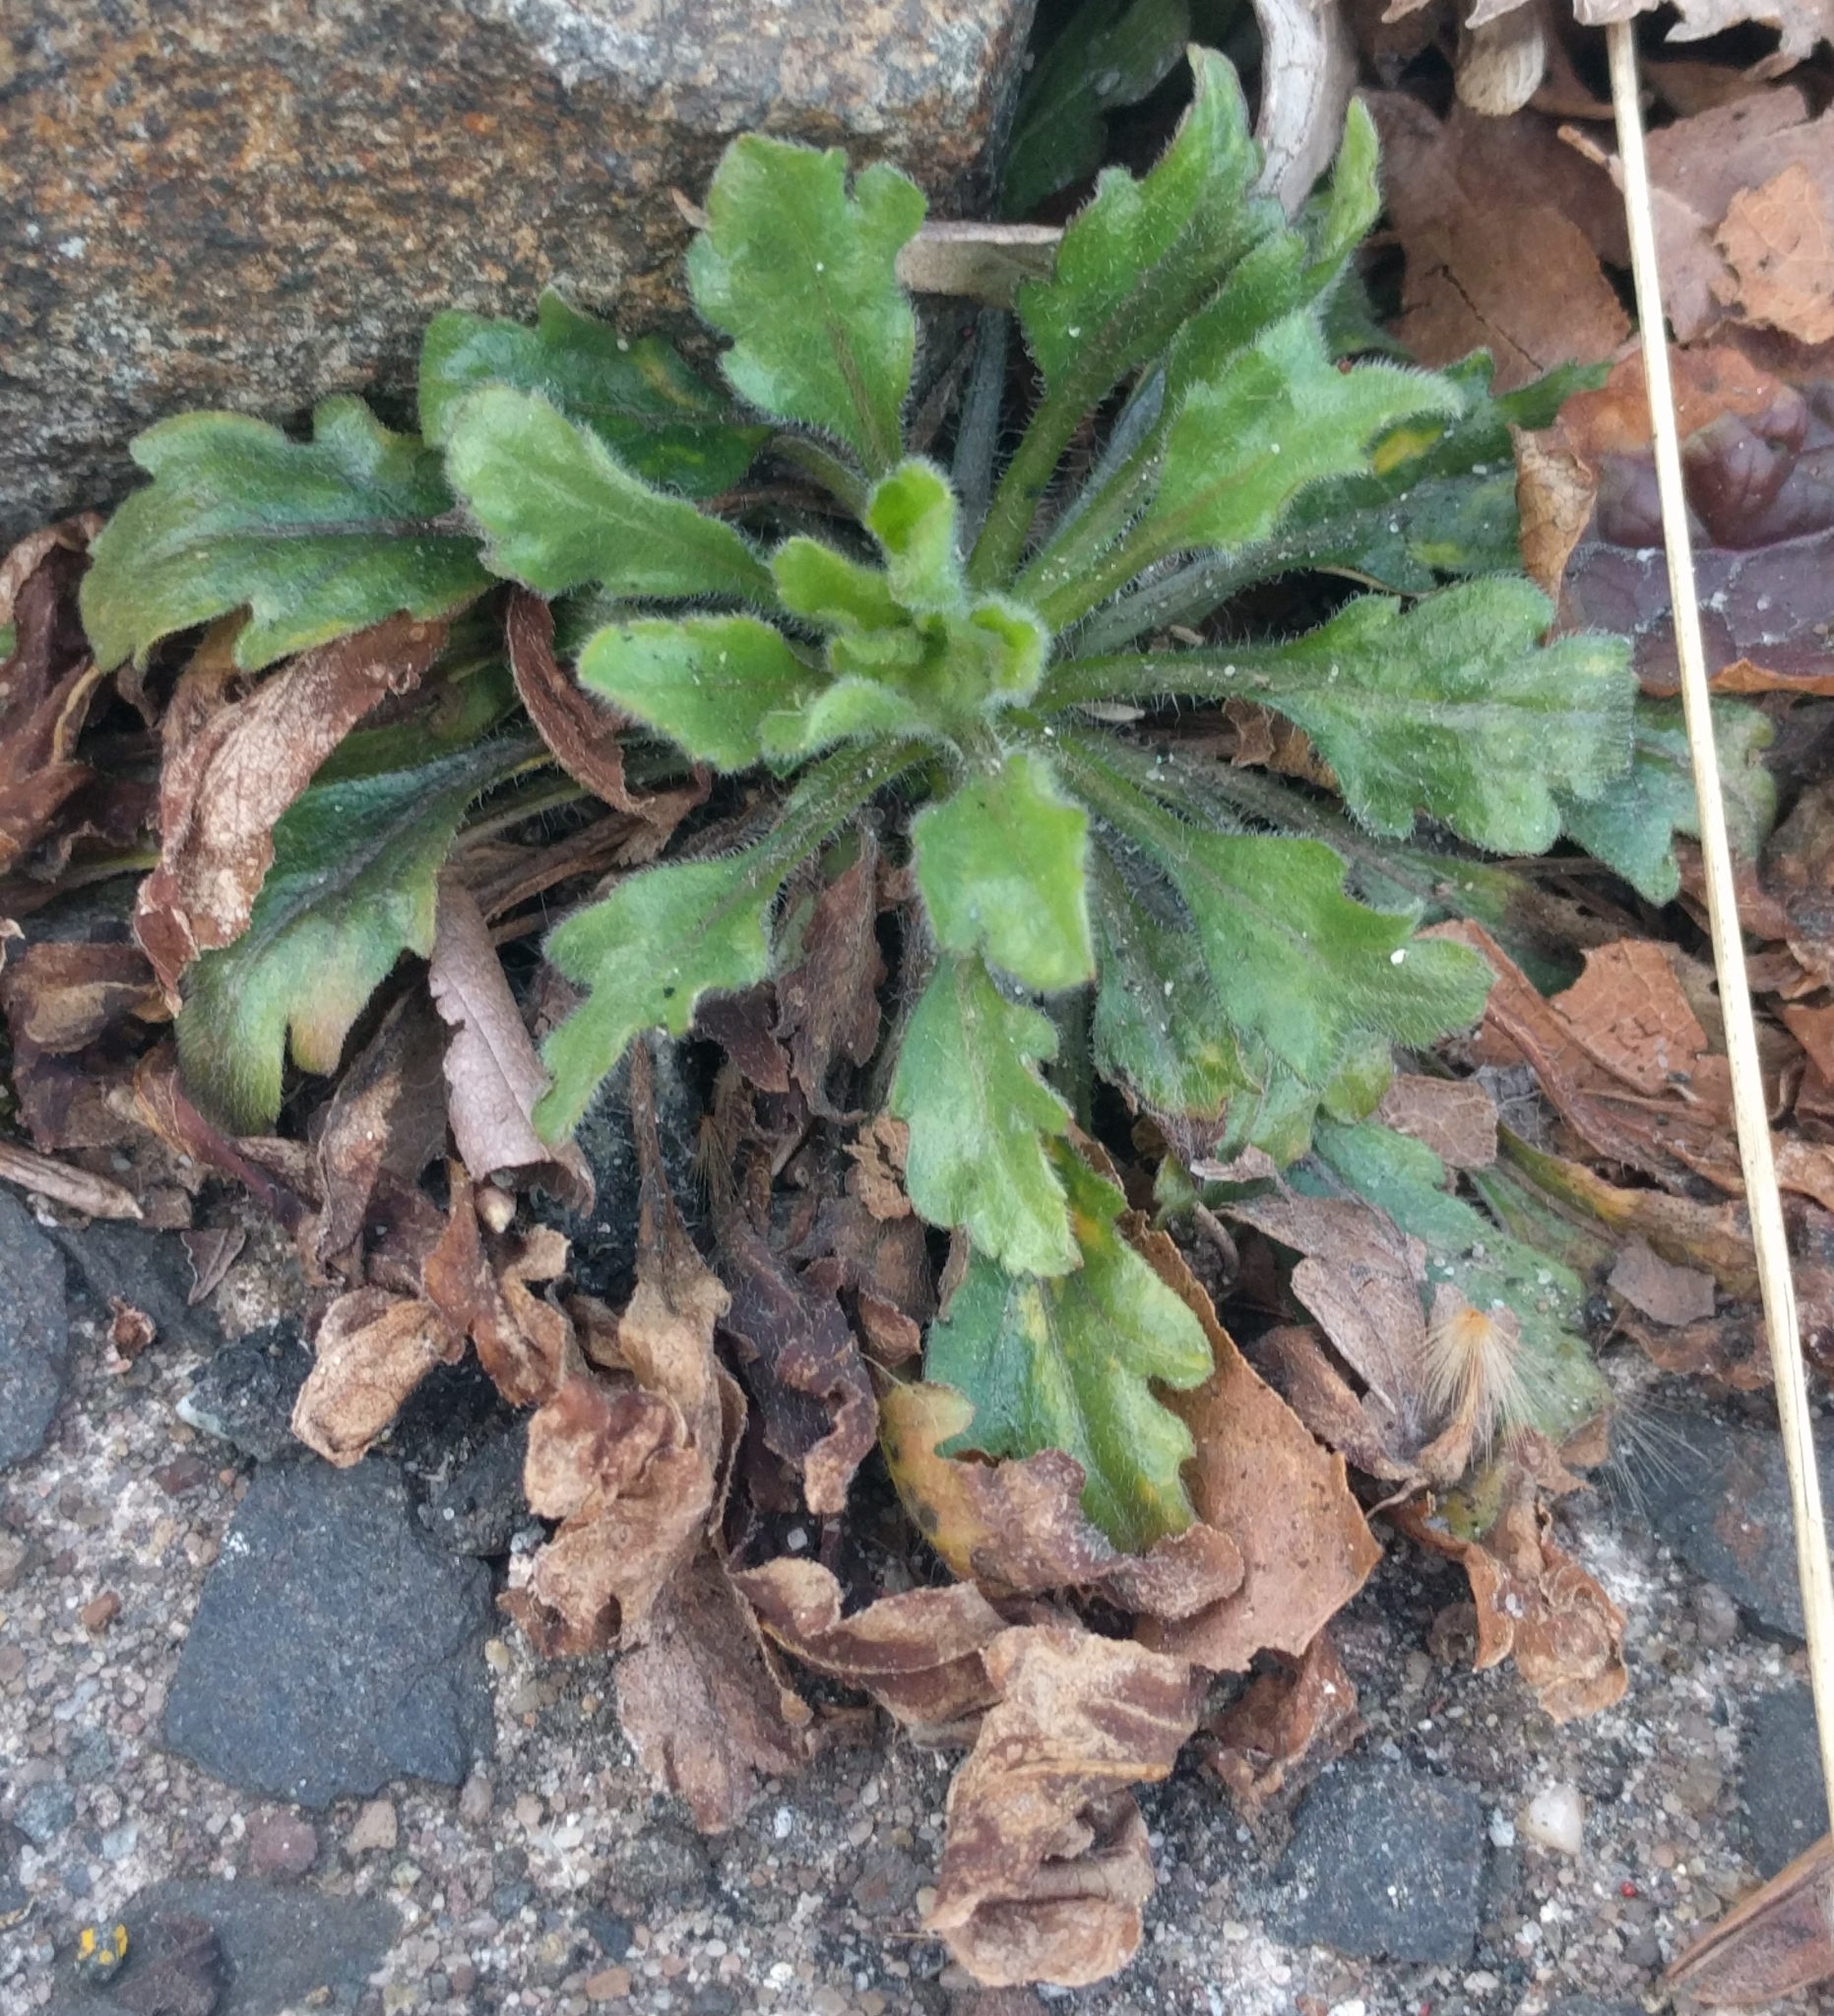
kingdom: Plantae
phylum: Tracheophyta
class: Magnoliopsida
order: Asterales
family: Asteraceae
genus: Erigeron
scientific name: Erigeron canadensis
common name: Canadian fleabane
